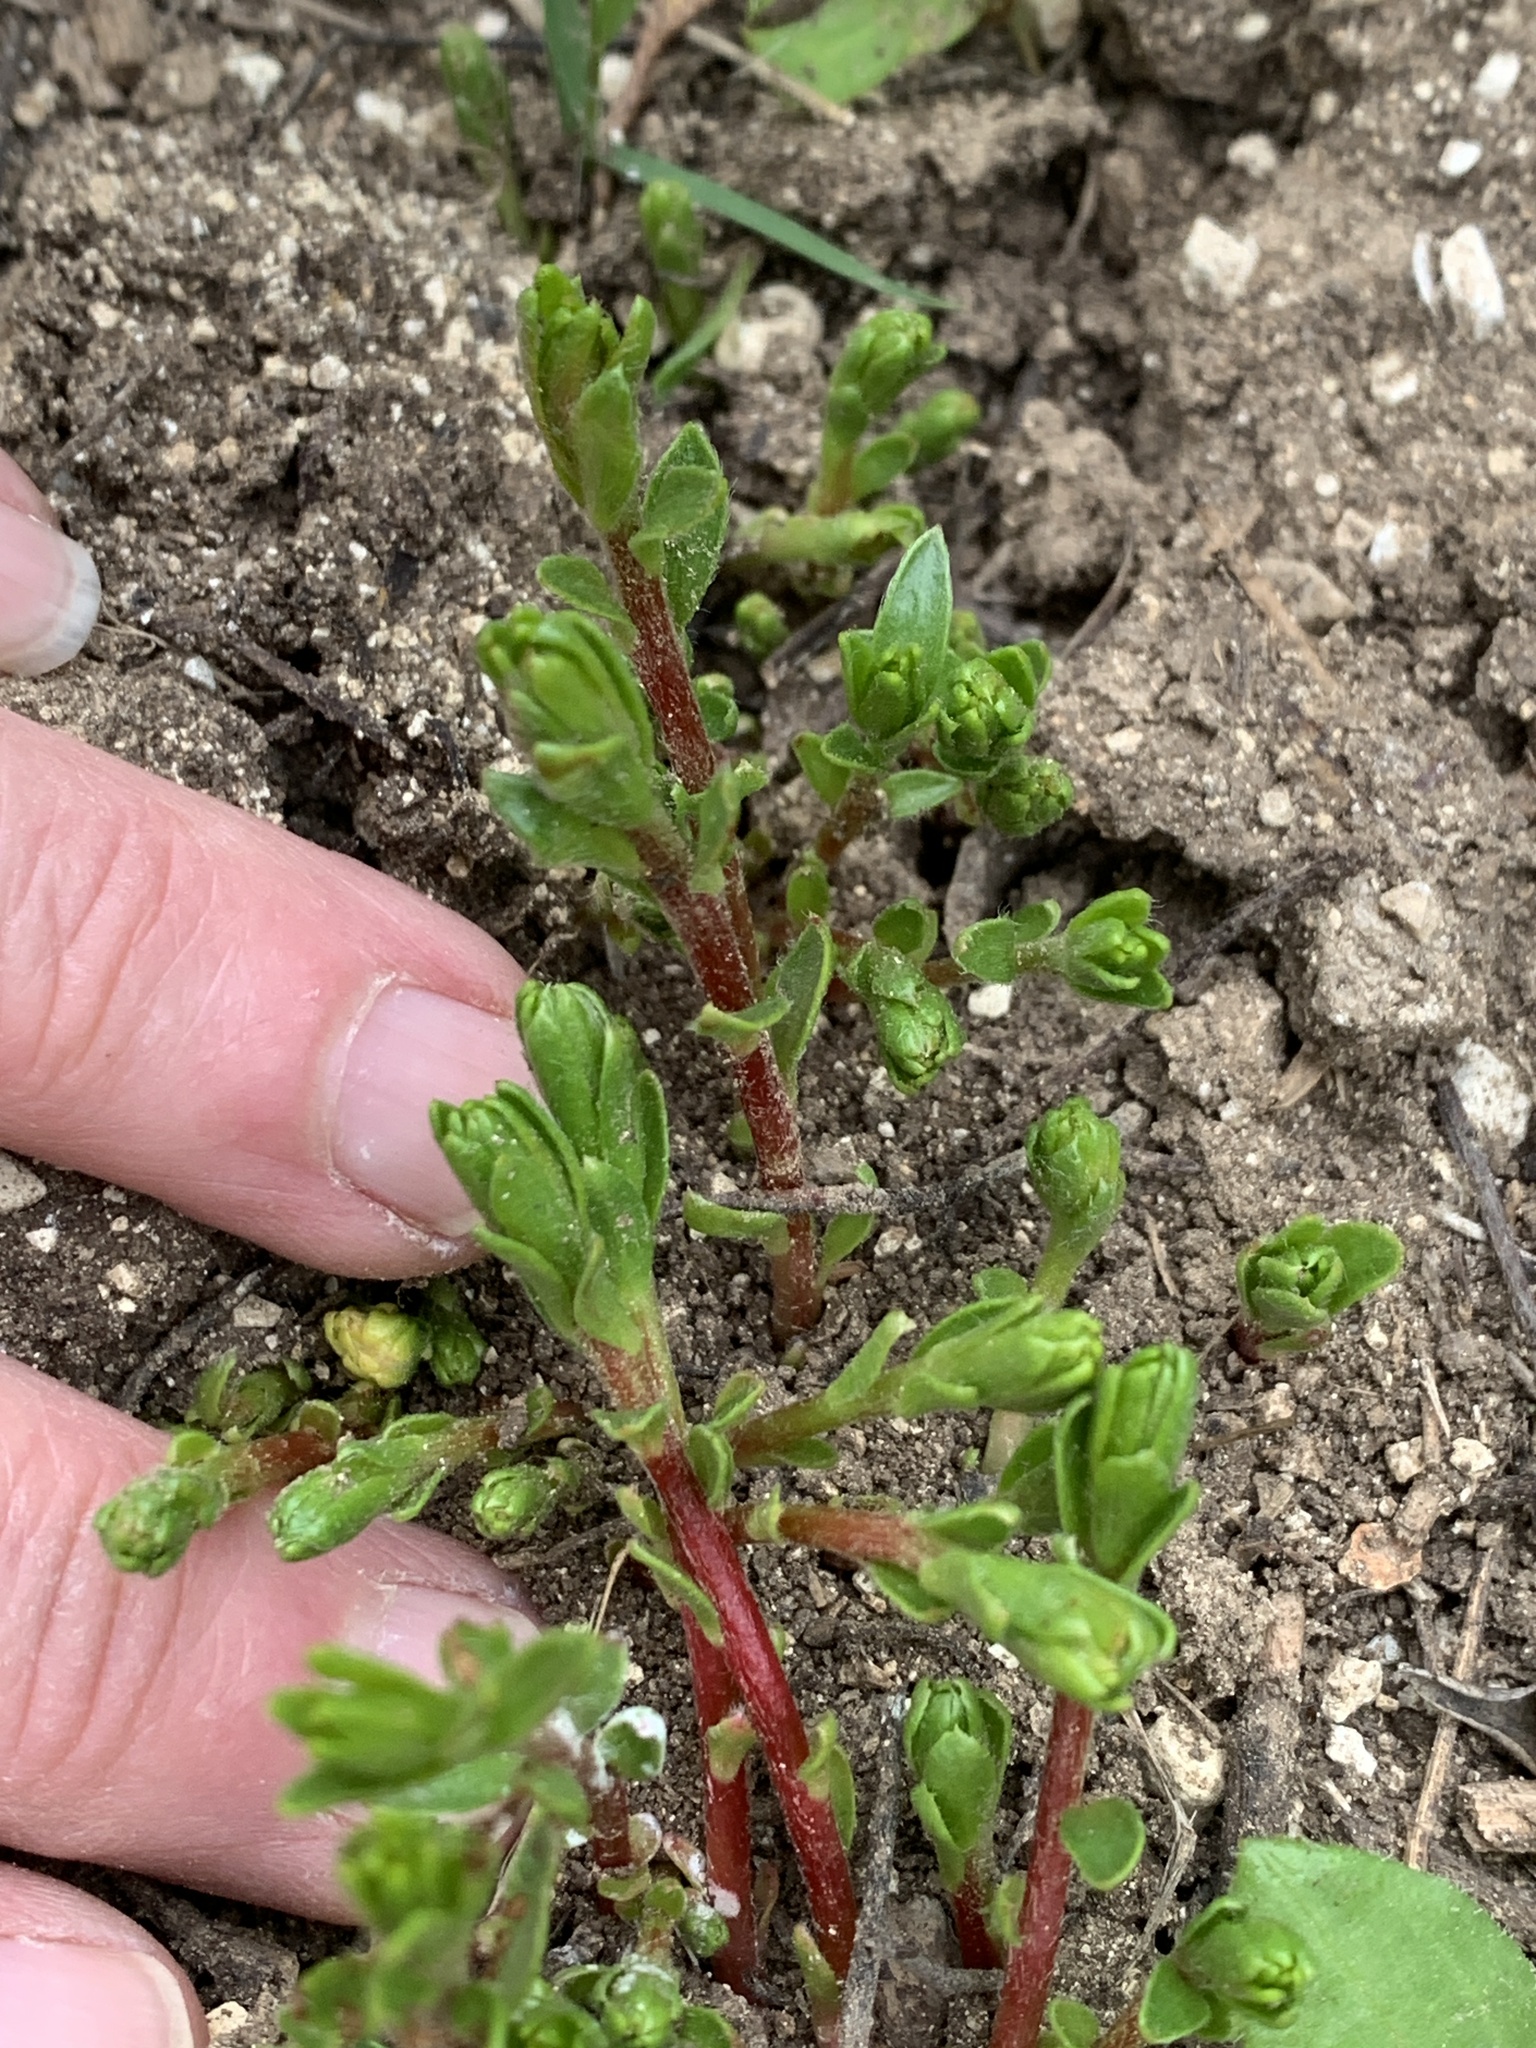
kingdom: Plantae
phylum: Tracheophyta
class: Magnoliopsida
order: Caryophyllales
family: Portulacaceae
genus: Portulaca
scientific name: Portulaca oleracea
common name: Common purslane
